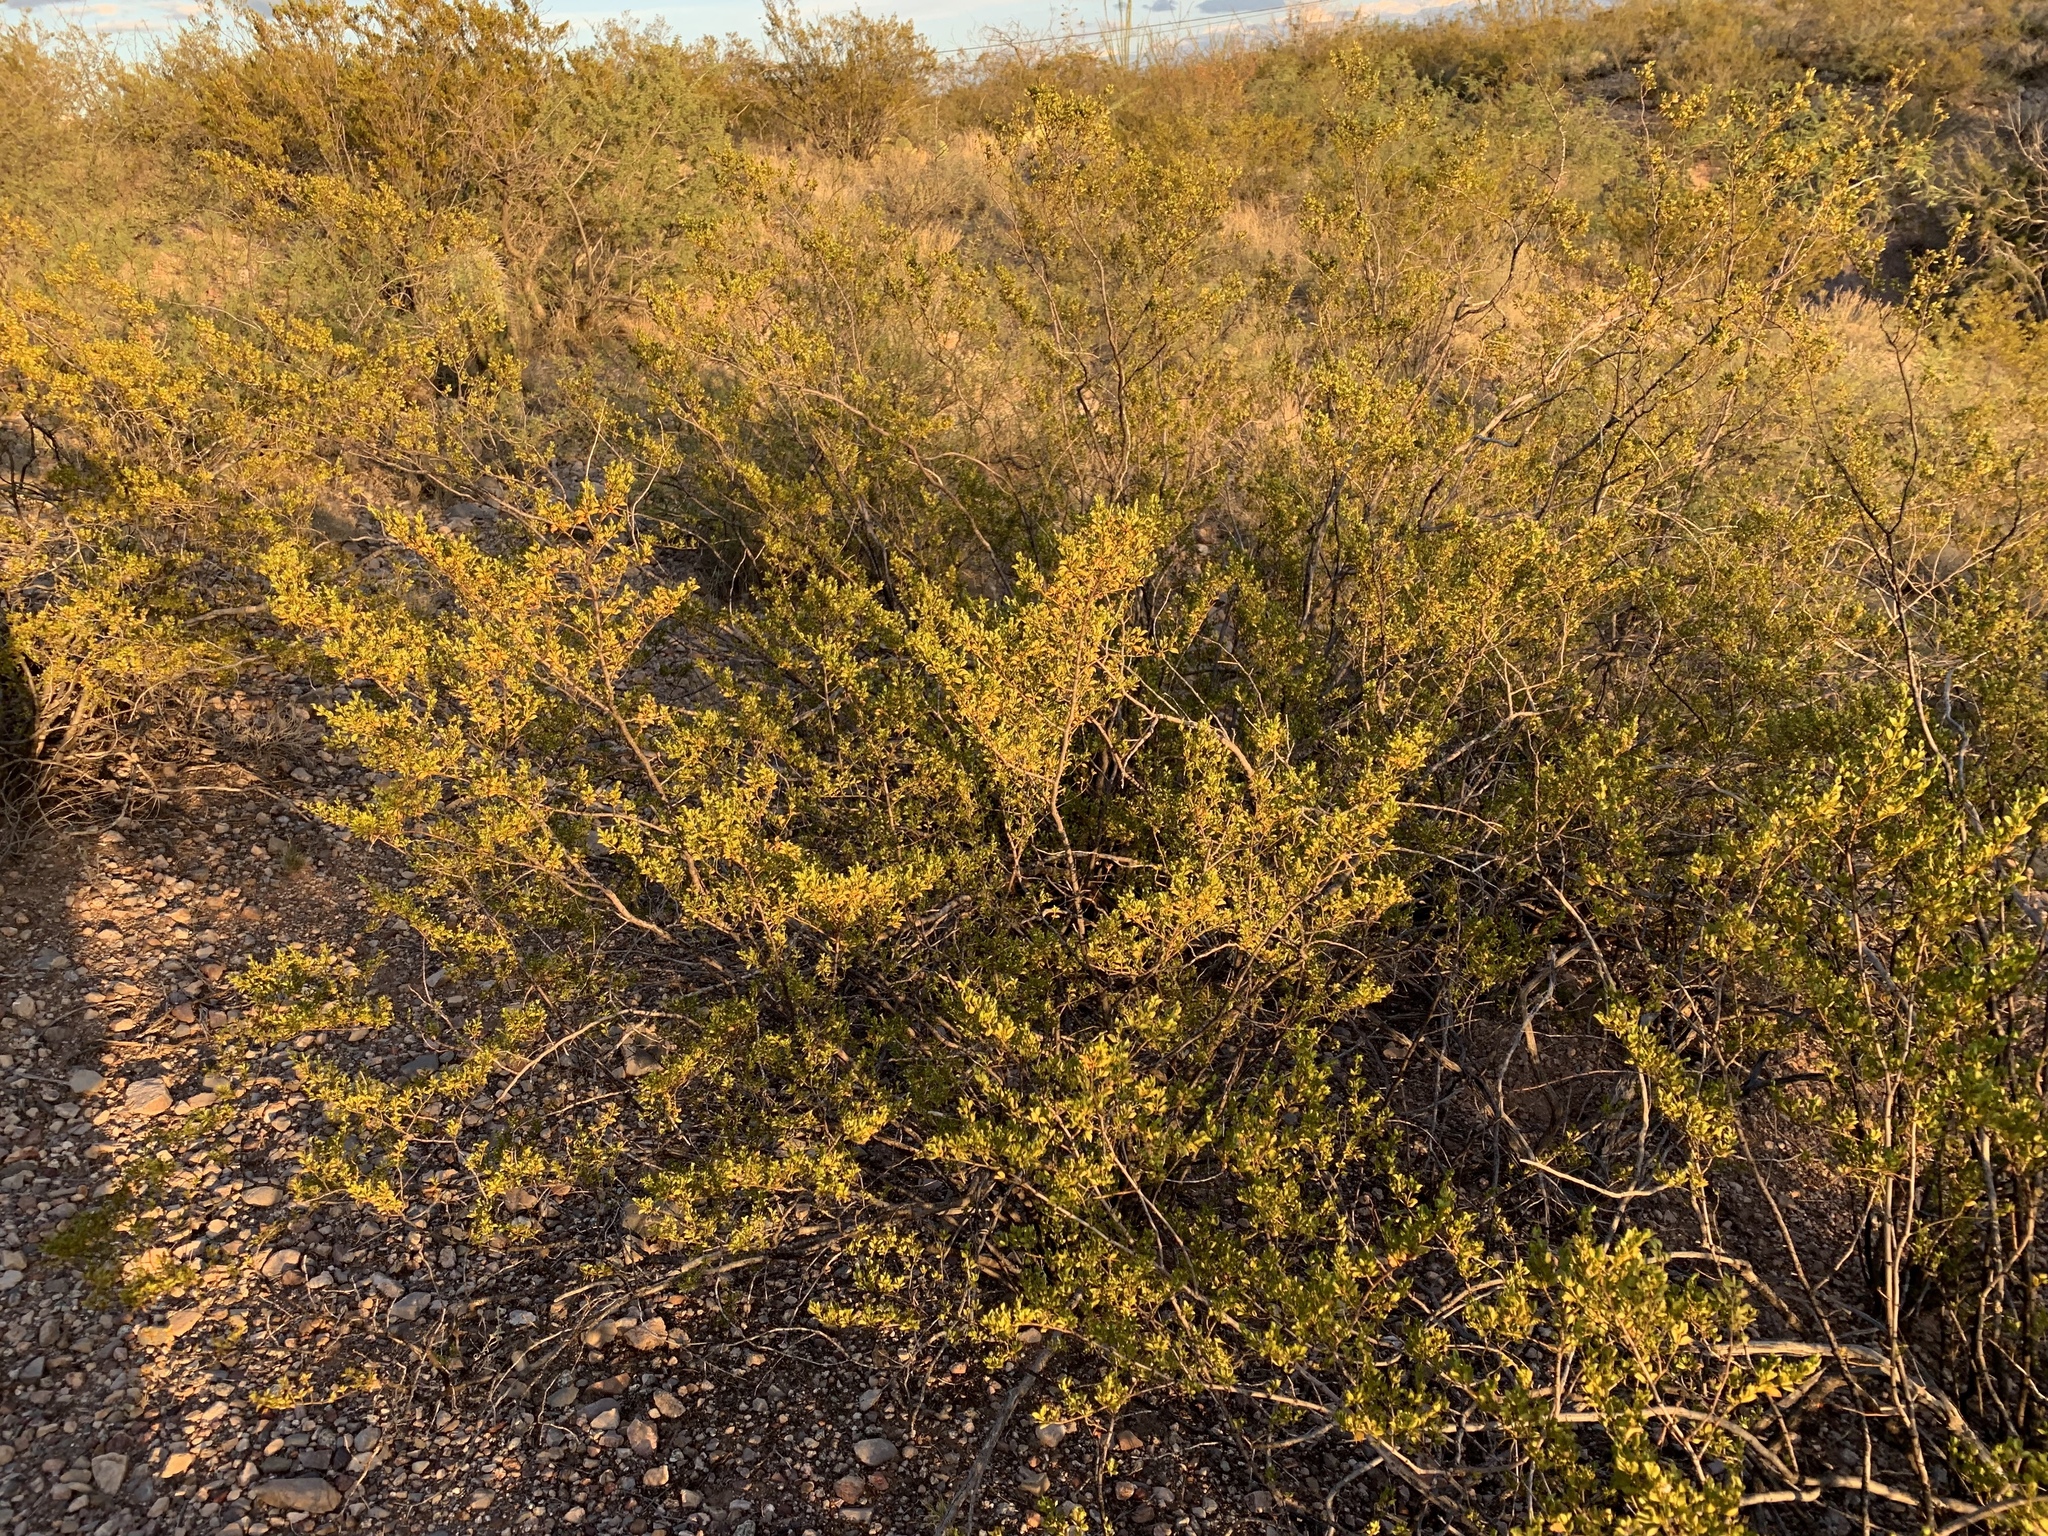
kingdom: Plantae
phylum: Tracheophyta
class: Magnoliopsida
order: Zygophyllales
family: Zygophyllaceae
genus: Larrea
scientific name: Larrea tridentata
